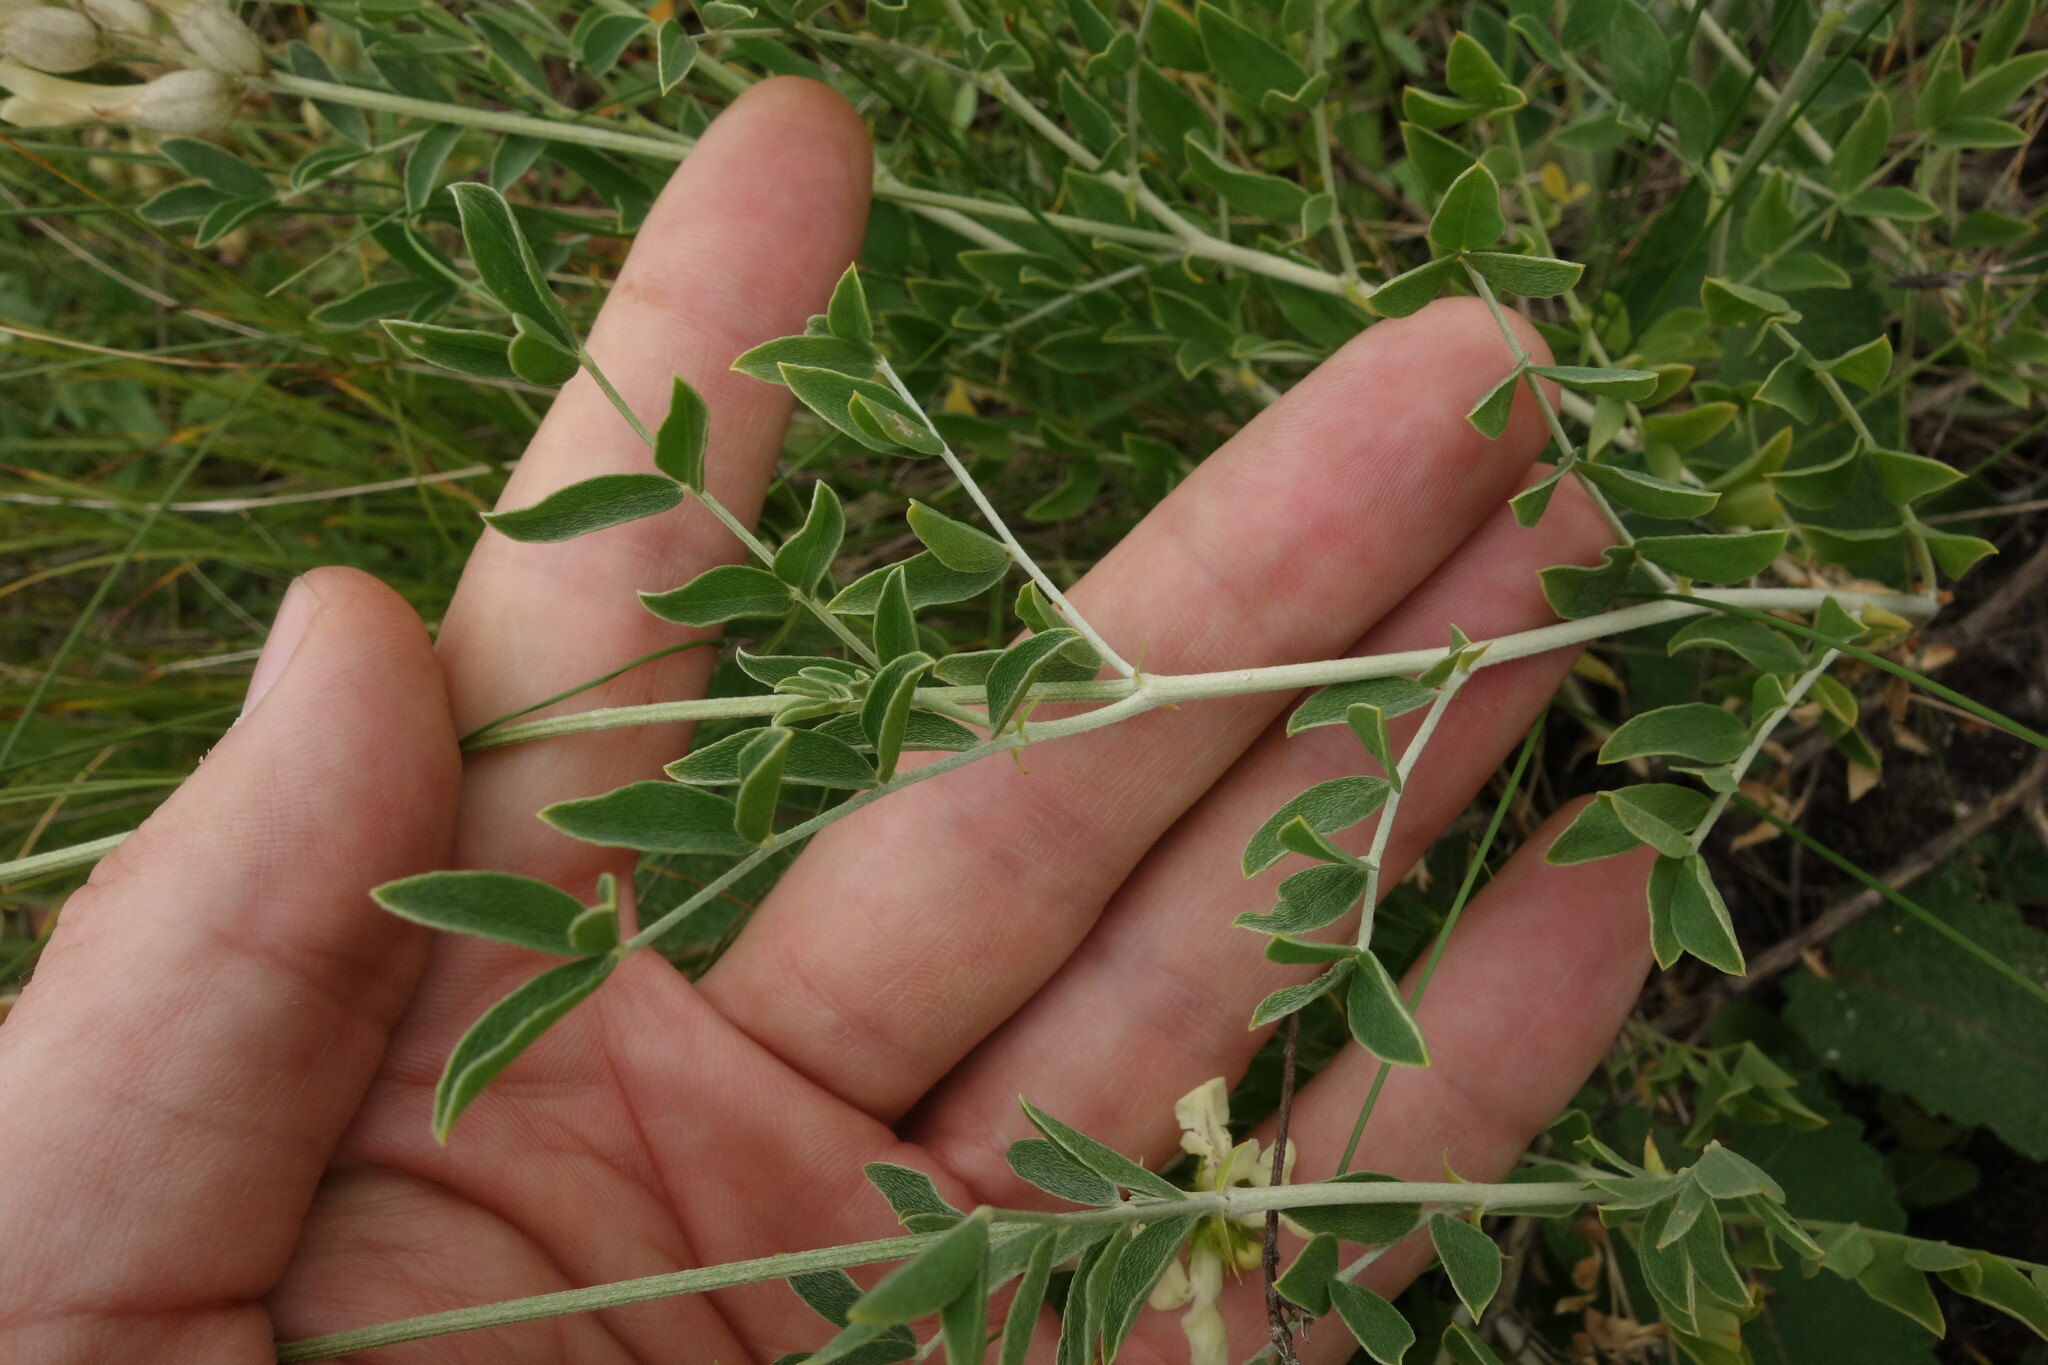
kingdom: Plantae
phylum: Tracheophyta
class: Magnoliopsida
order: Fabales
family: Fabaceae
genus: Astragalus
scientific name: Astragalus albicaulis
